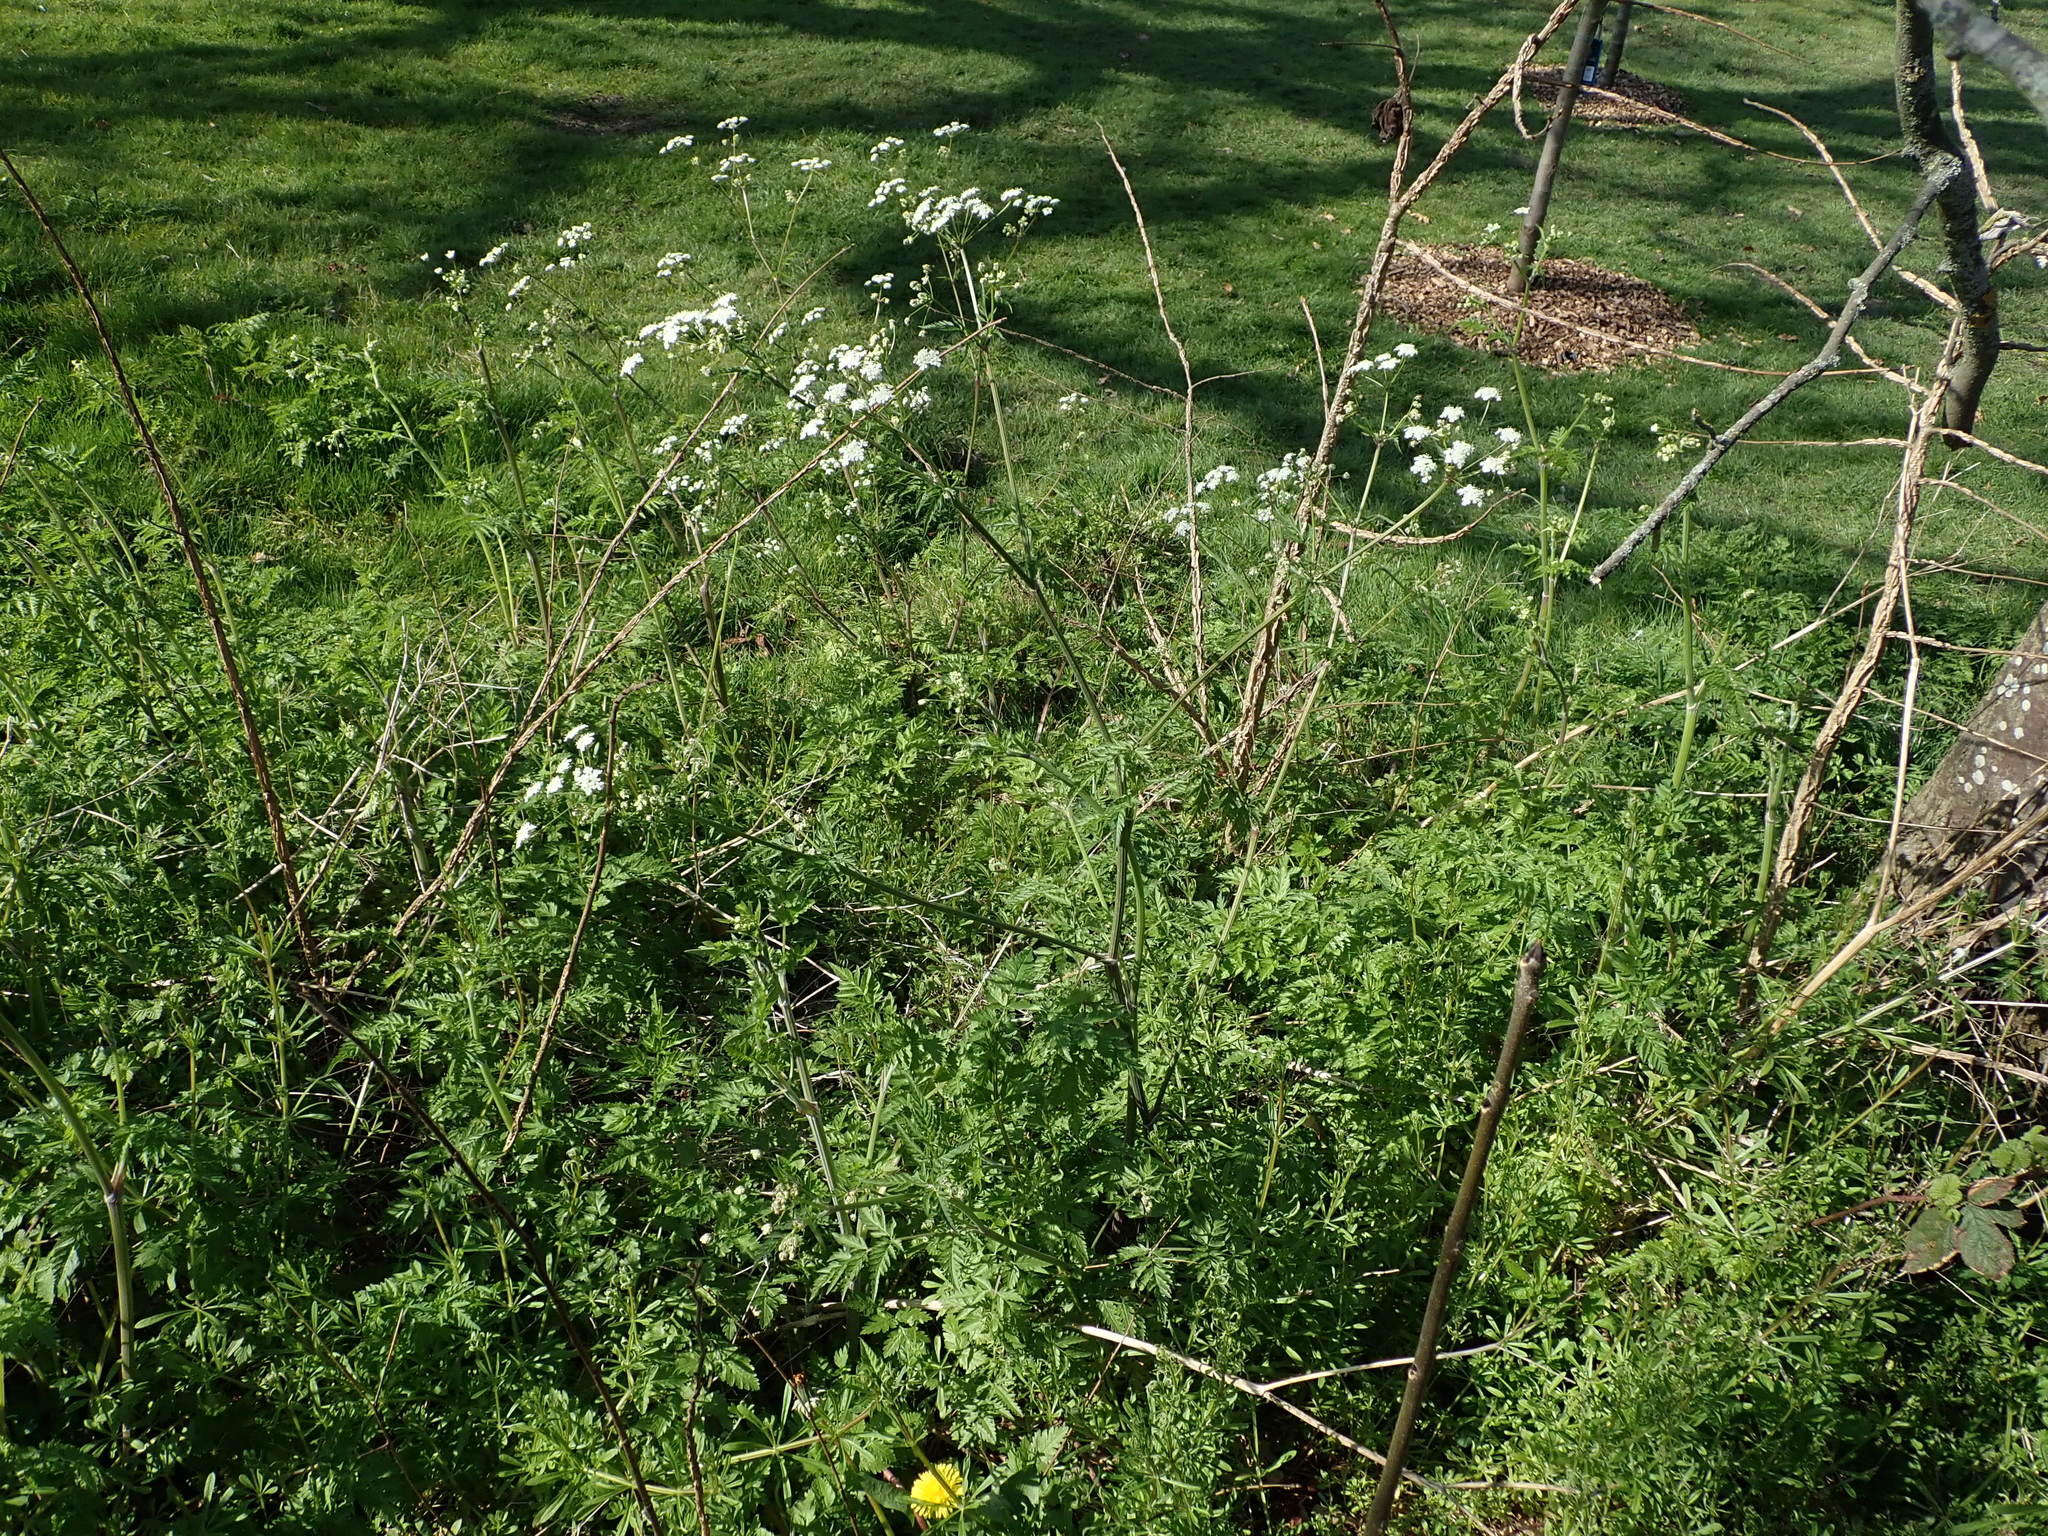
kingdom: Plantae
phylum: Tracheophyta
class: Magnoliopsida
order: Apiales
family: Apiaceae
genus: Anthriscus
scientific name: Anthriscus sylvestris
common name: Cow parsley
